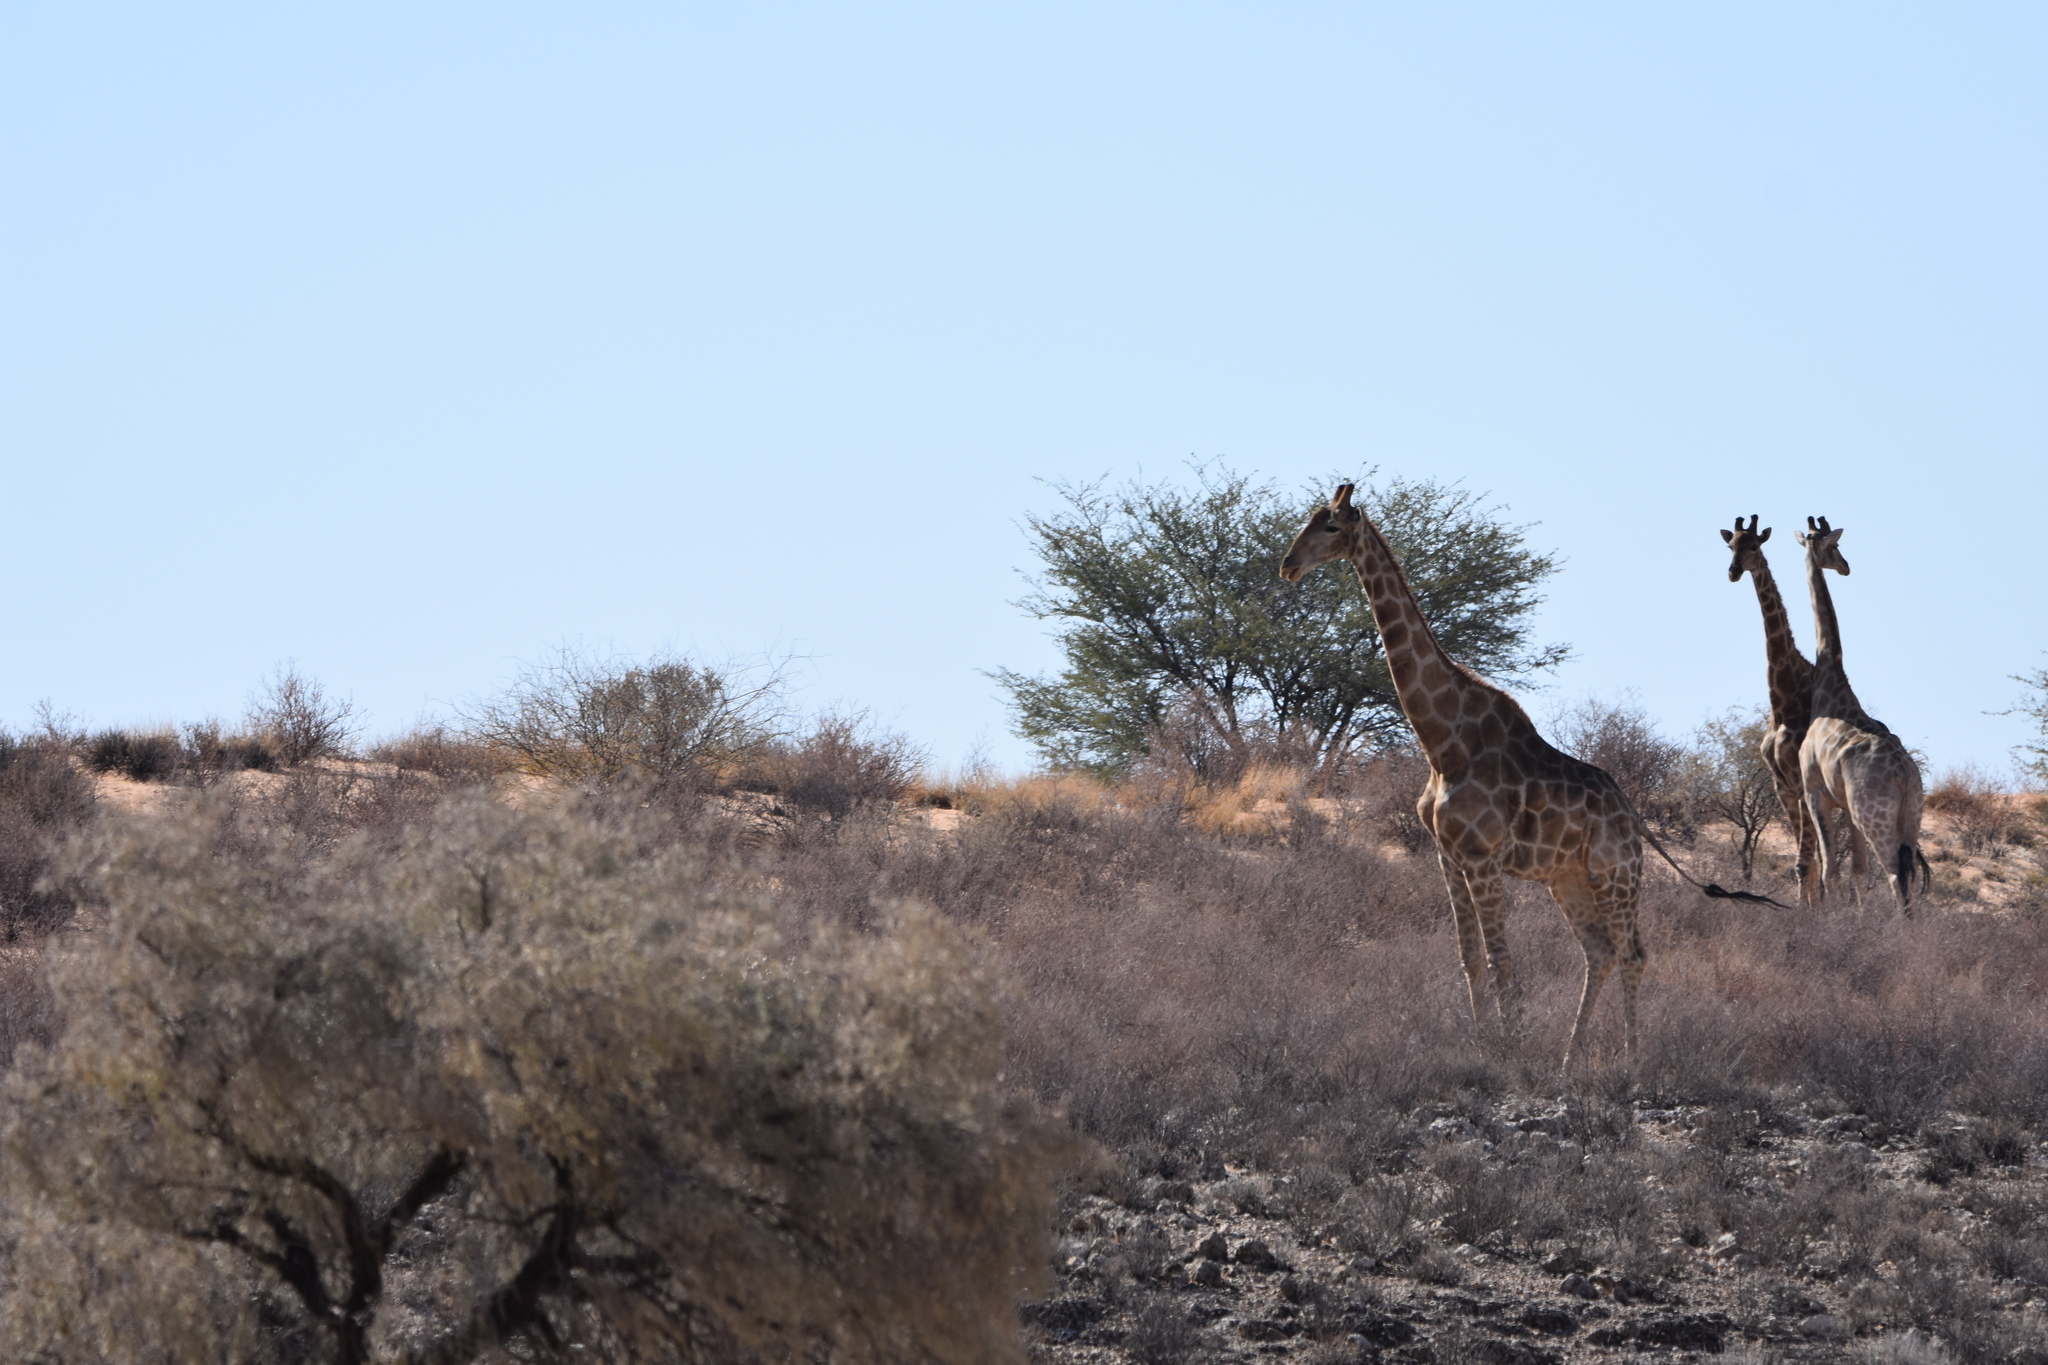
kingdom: Animalia
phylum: Chordata
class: Mammalia
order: Artiodactyla
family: Giraffidae
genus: Giraffa
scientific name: Giraffa giraffa
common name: Southern giraffe
